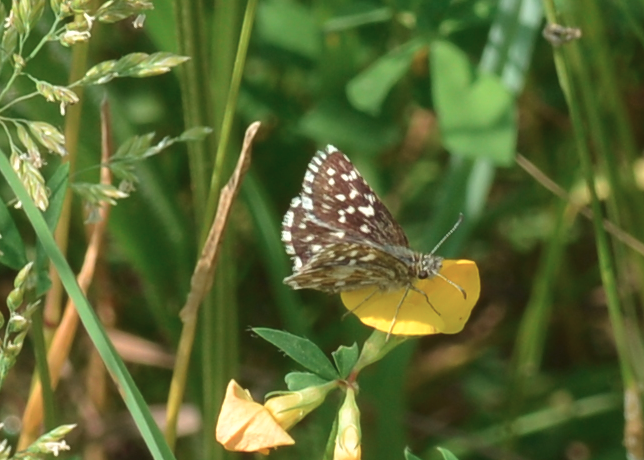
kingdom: Animalia
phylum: Arthropoda
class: Insecta
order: Lepidoptera
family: Hesperiidae
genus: Pyrgus
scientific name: Pyrgus malvae
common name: Grizzled skipper
